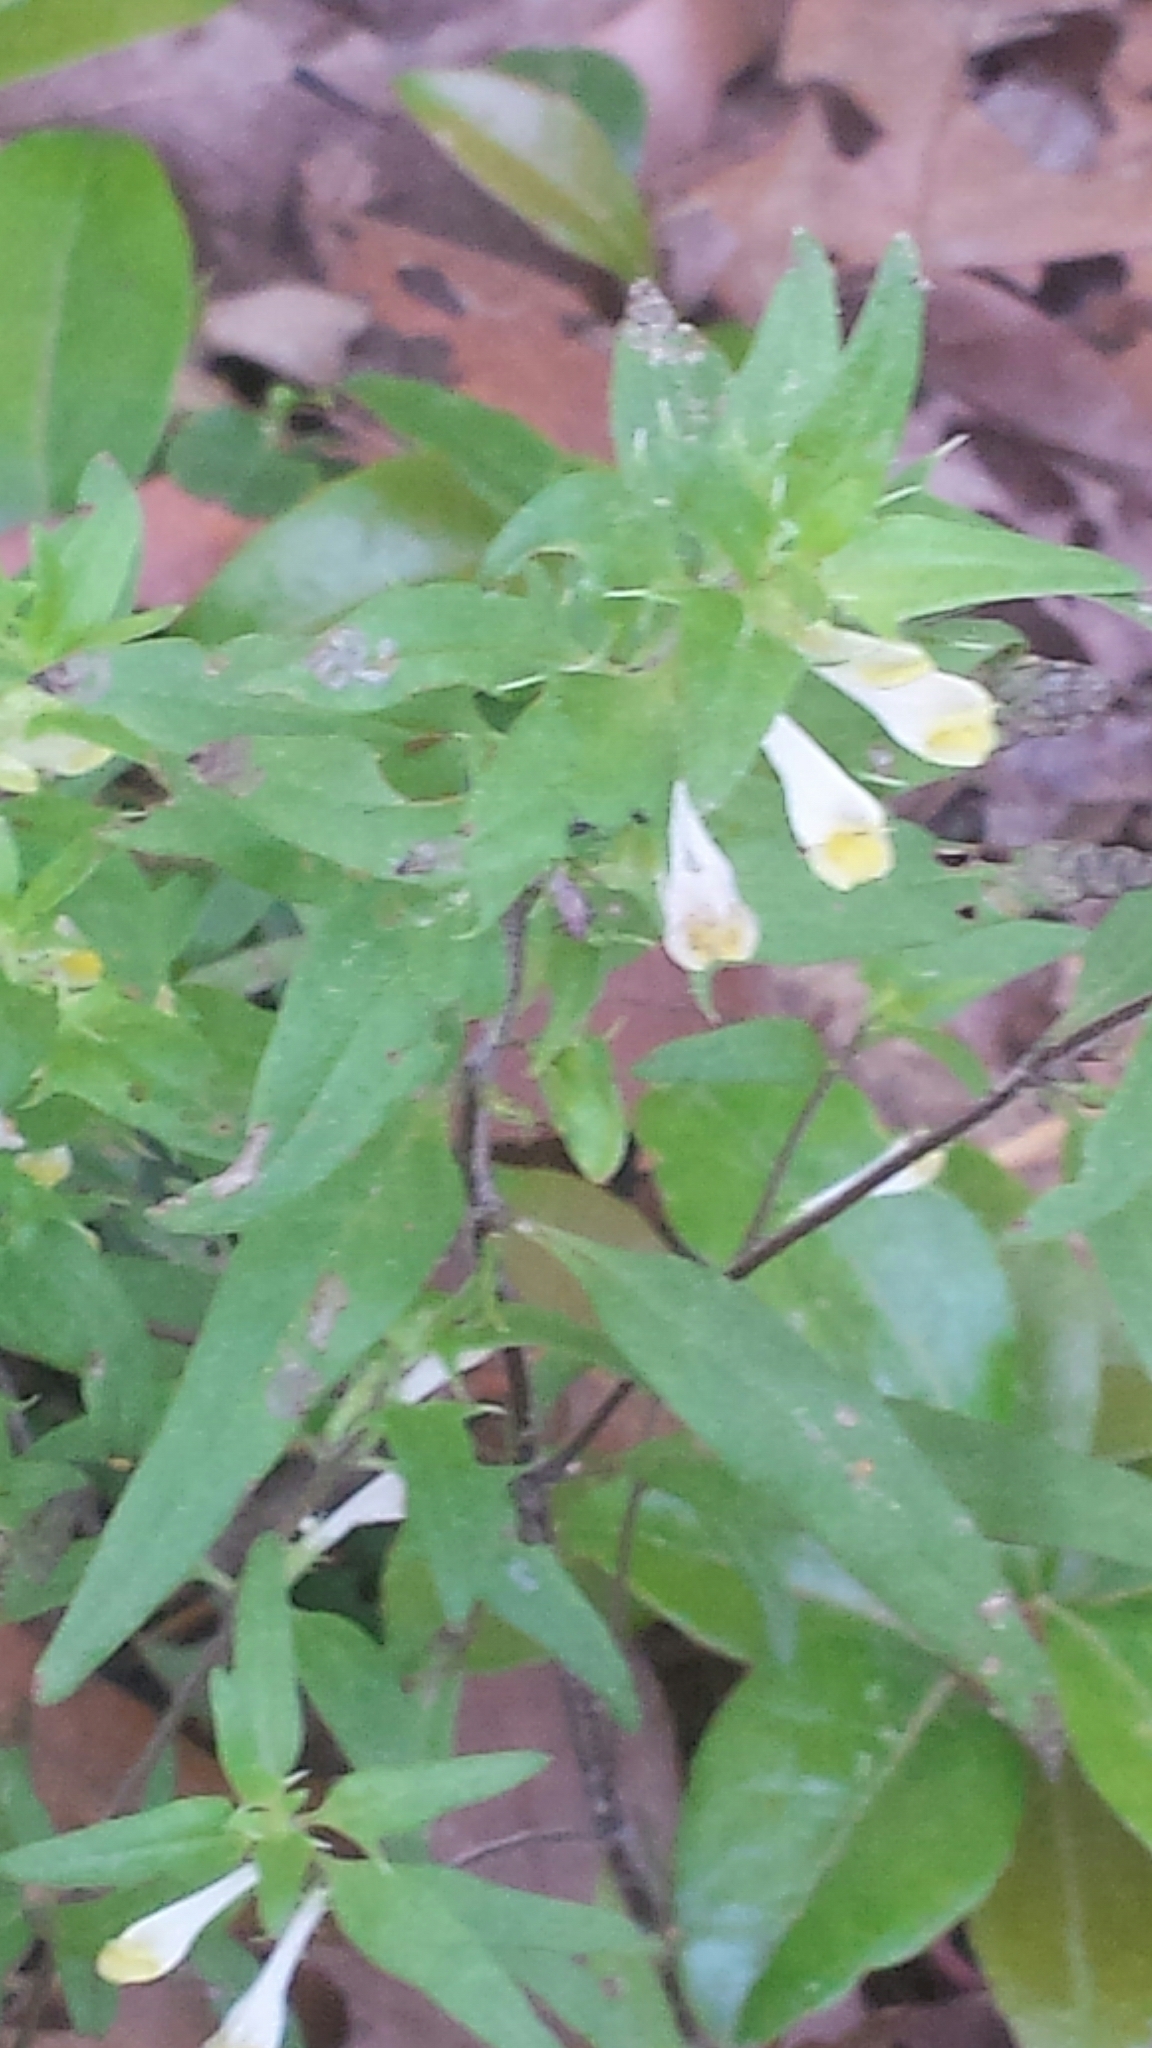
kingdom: Plantae
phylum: Tracheophyta
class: Magnoliopsida
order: Lamiales
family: Orobanchaceae
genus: Melampyrum
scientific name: Melampyrum lineare
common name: American cow-wheat
